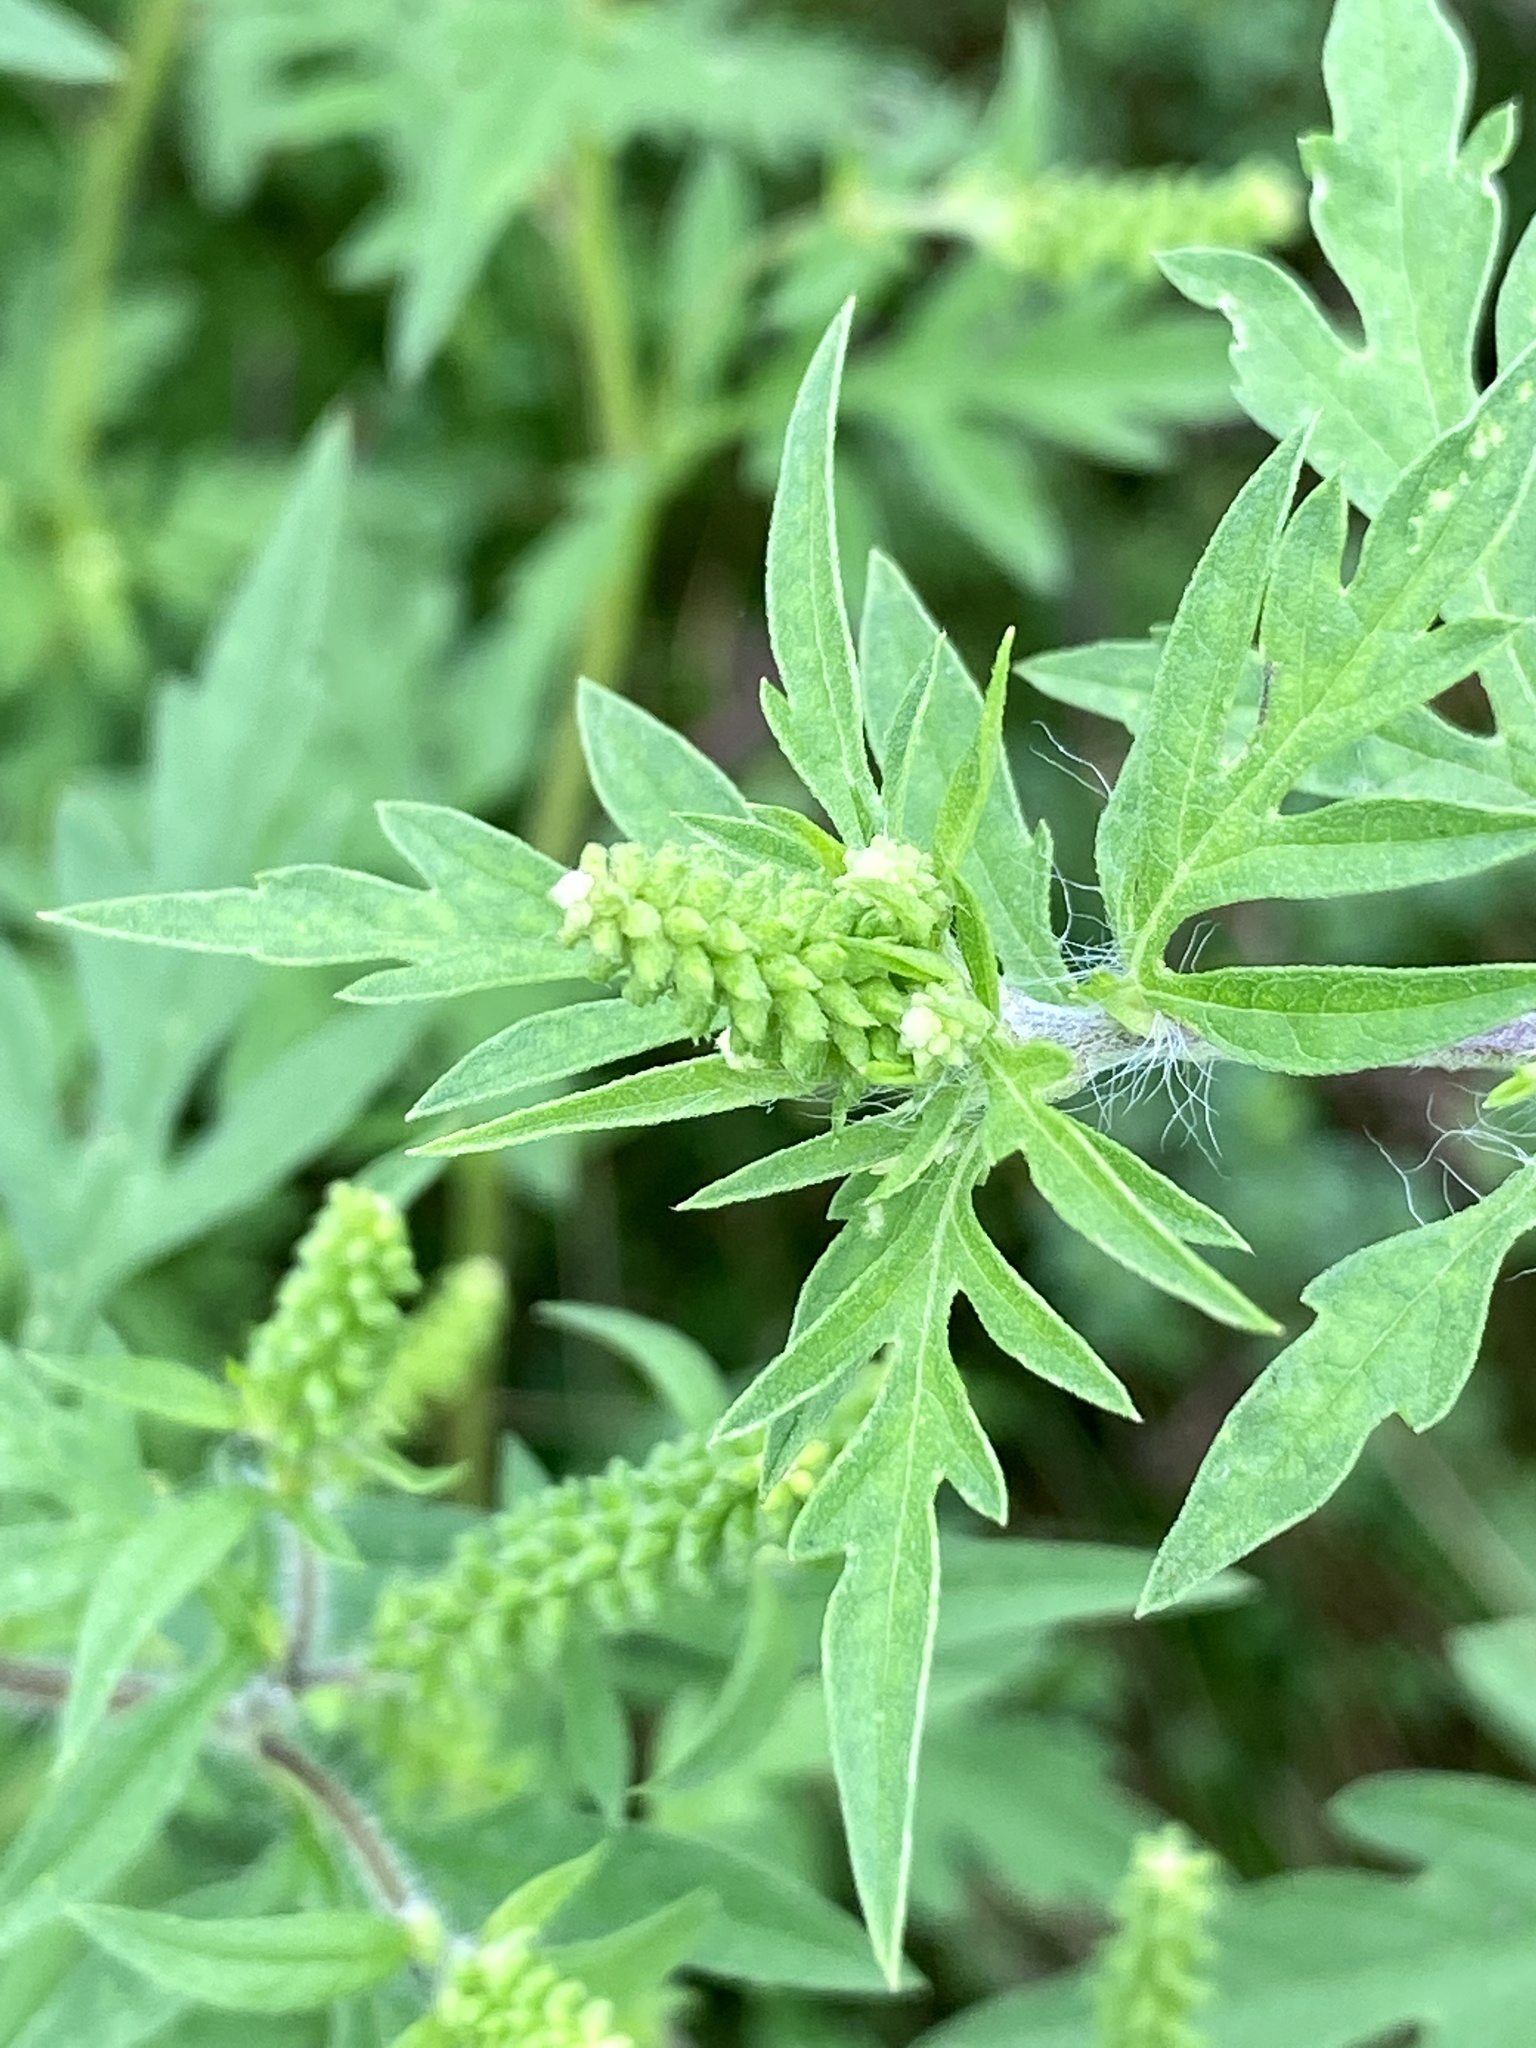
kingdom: Plantae
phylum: Tracheophyta
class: Magnoliopsida
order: Asterales
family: Asteraceae
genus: Ambrosia
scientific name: Ambrosia artemisiifolia
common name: Annual ragweed
